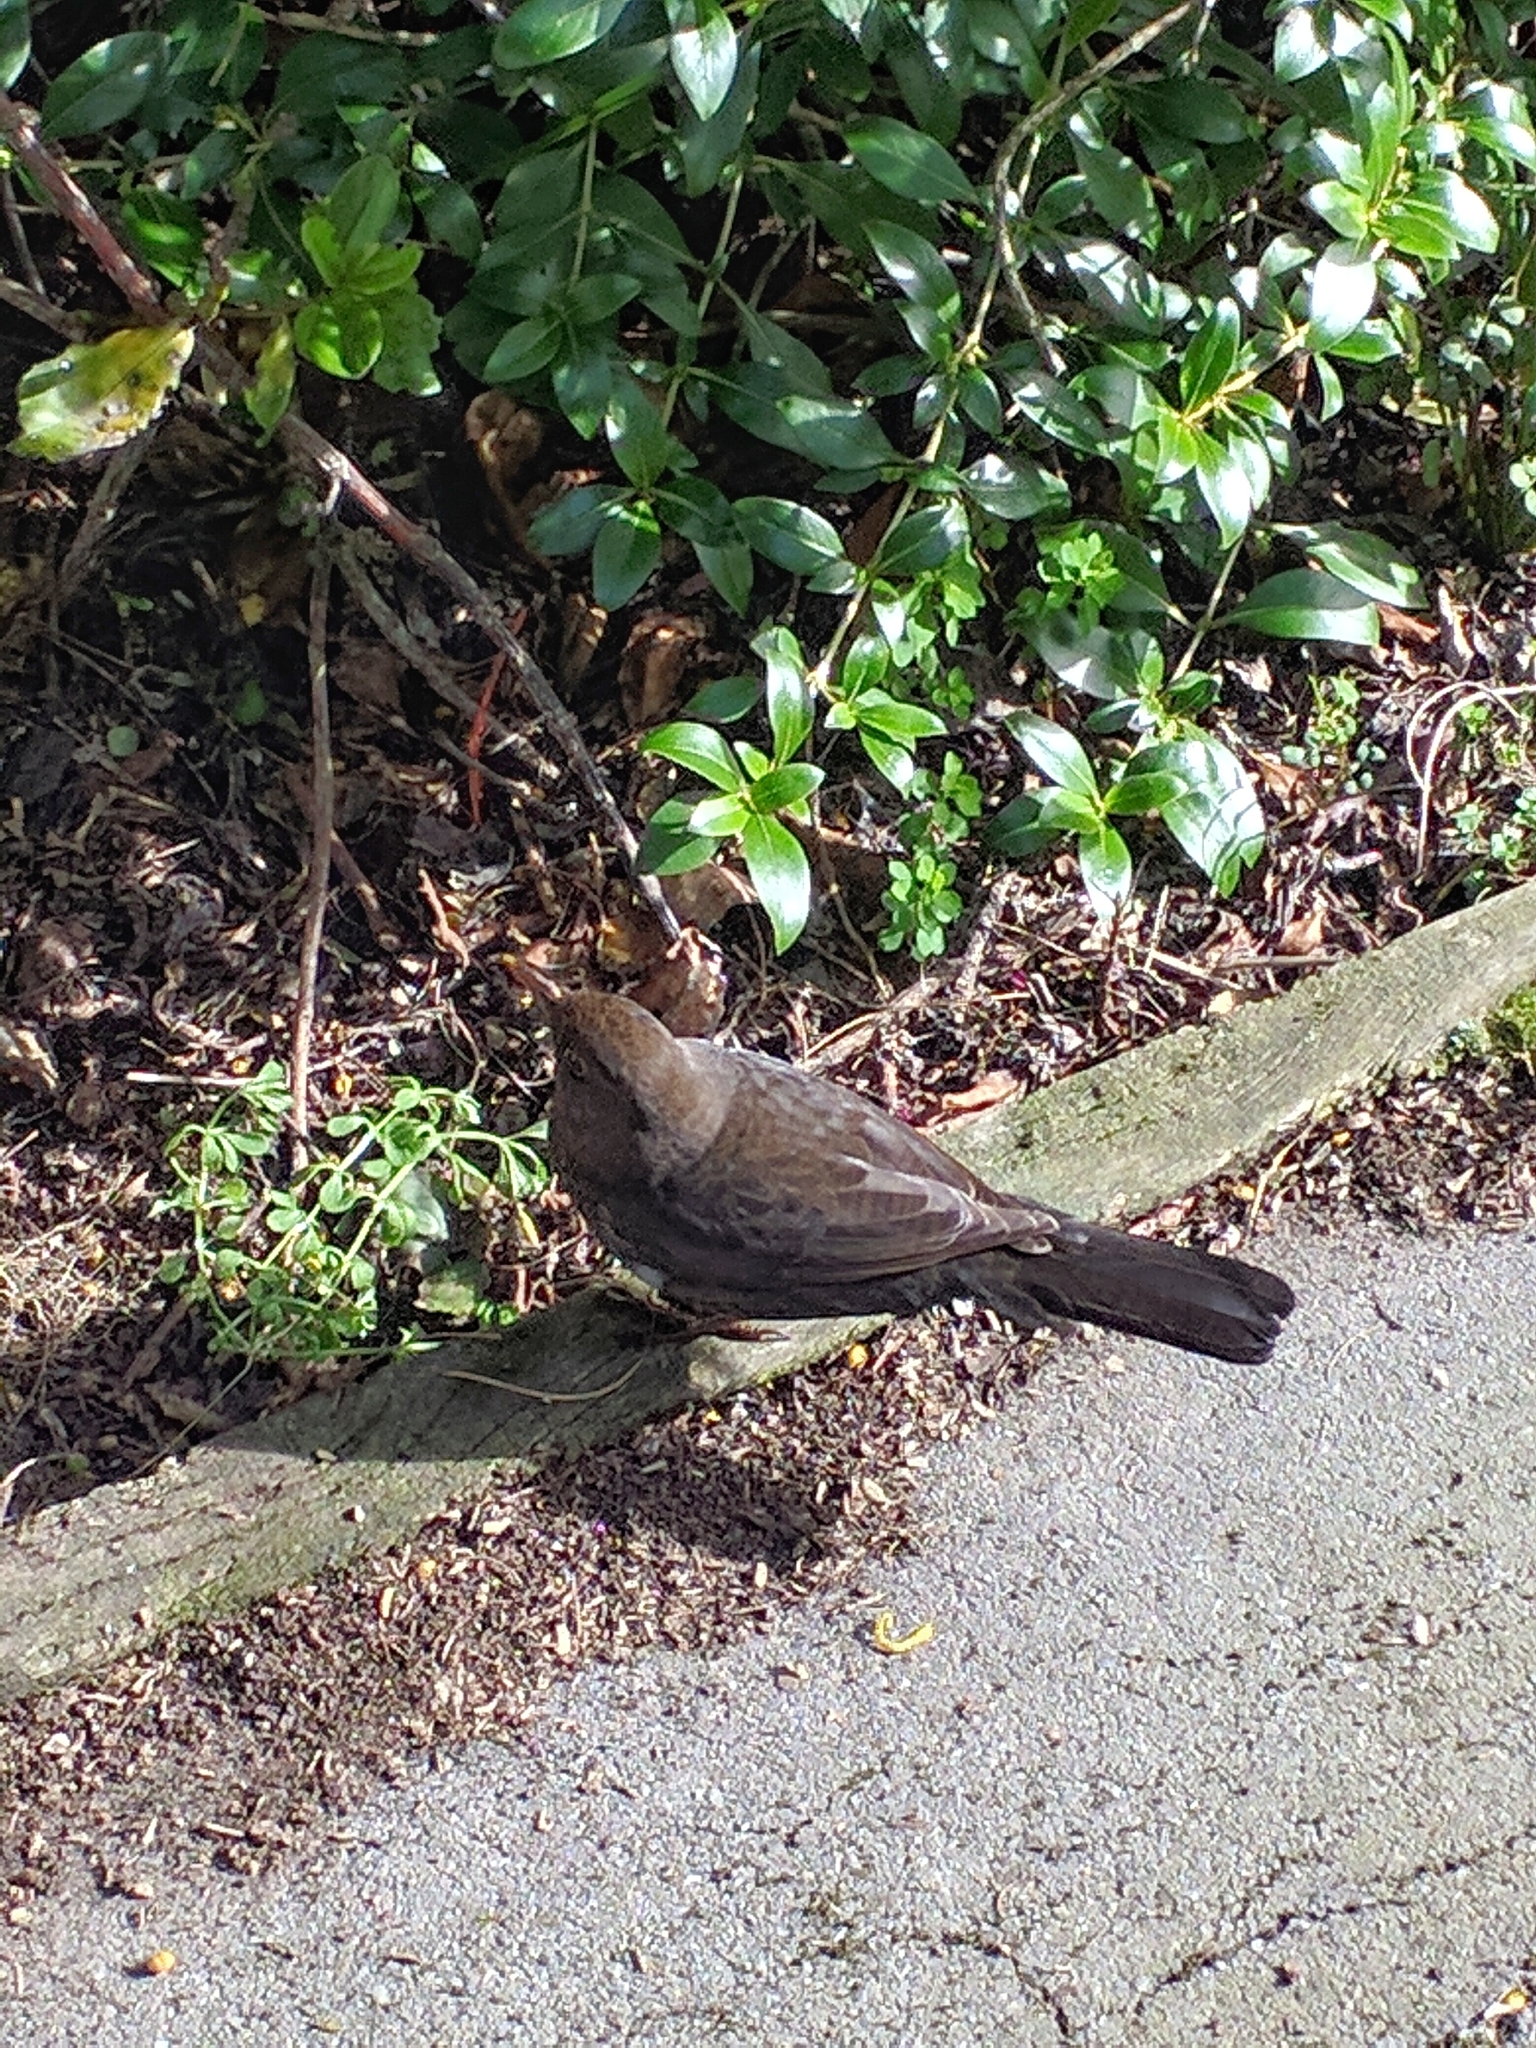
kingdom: Animalia
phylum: Chordata
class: Aves
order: Passeriformes
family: Turdidae
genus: Turdus
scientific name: Turdus merula
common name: Common blackbird
